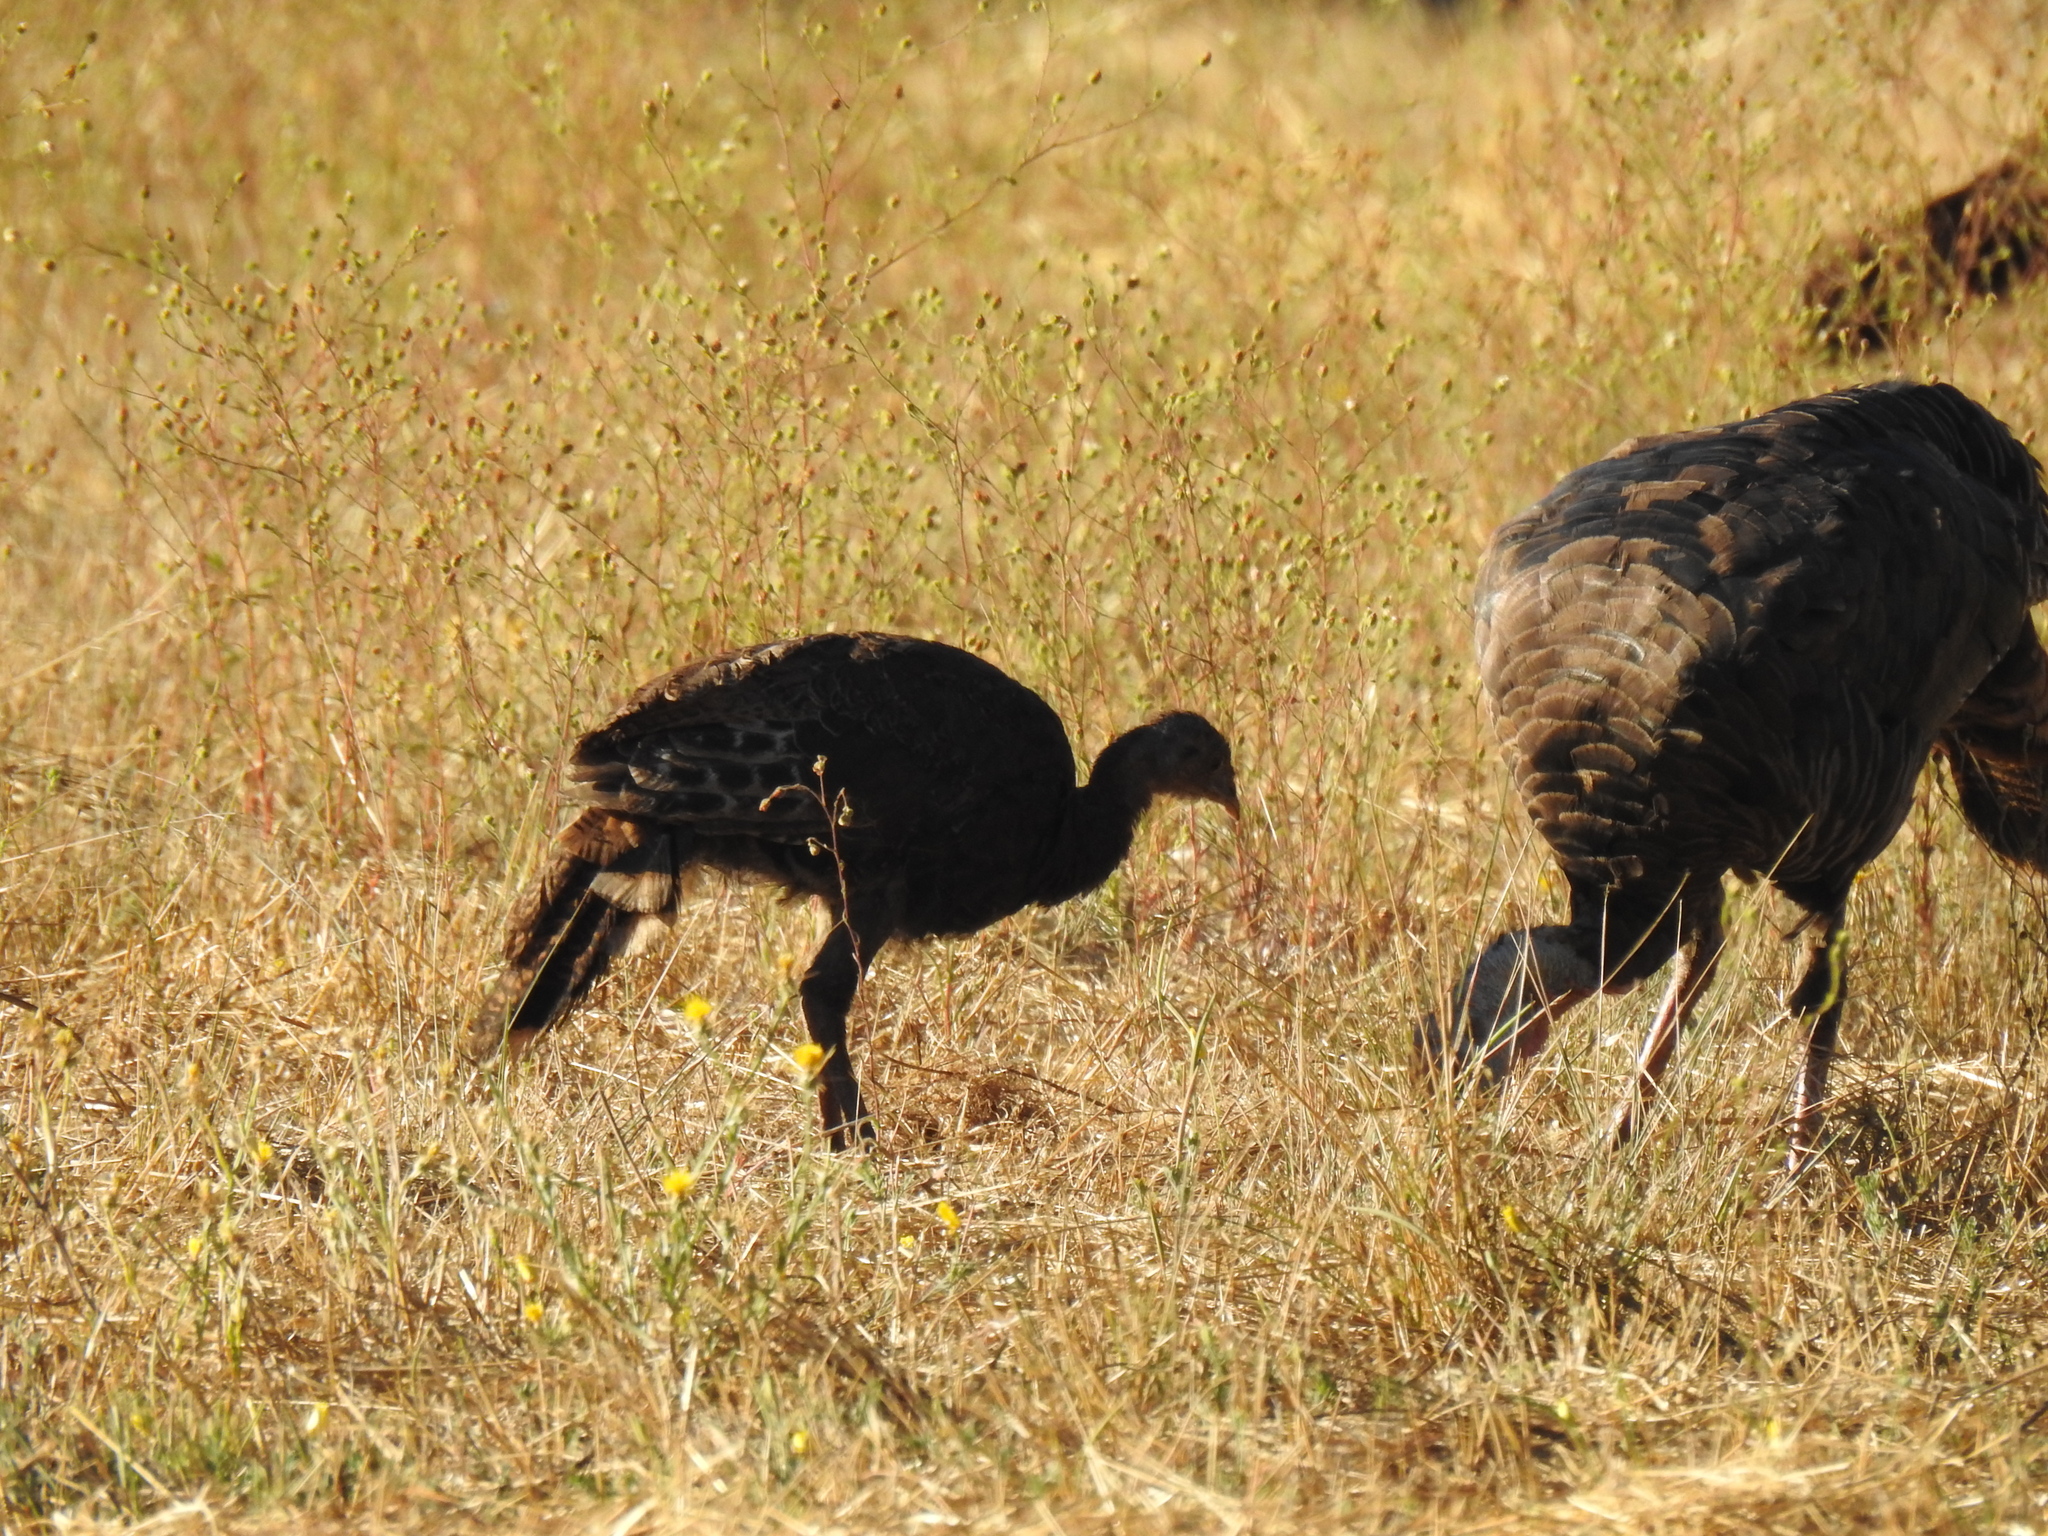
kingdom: Animalia
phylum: Chordata
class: Aves
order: Galliformes
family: Phasianidae
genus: Meleagris
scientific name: Meleagris gallopavo
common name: Wild turkey
